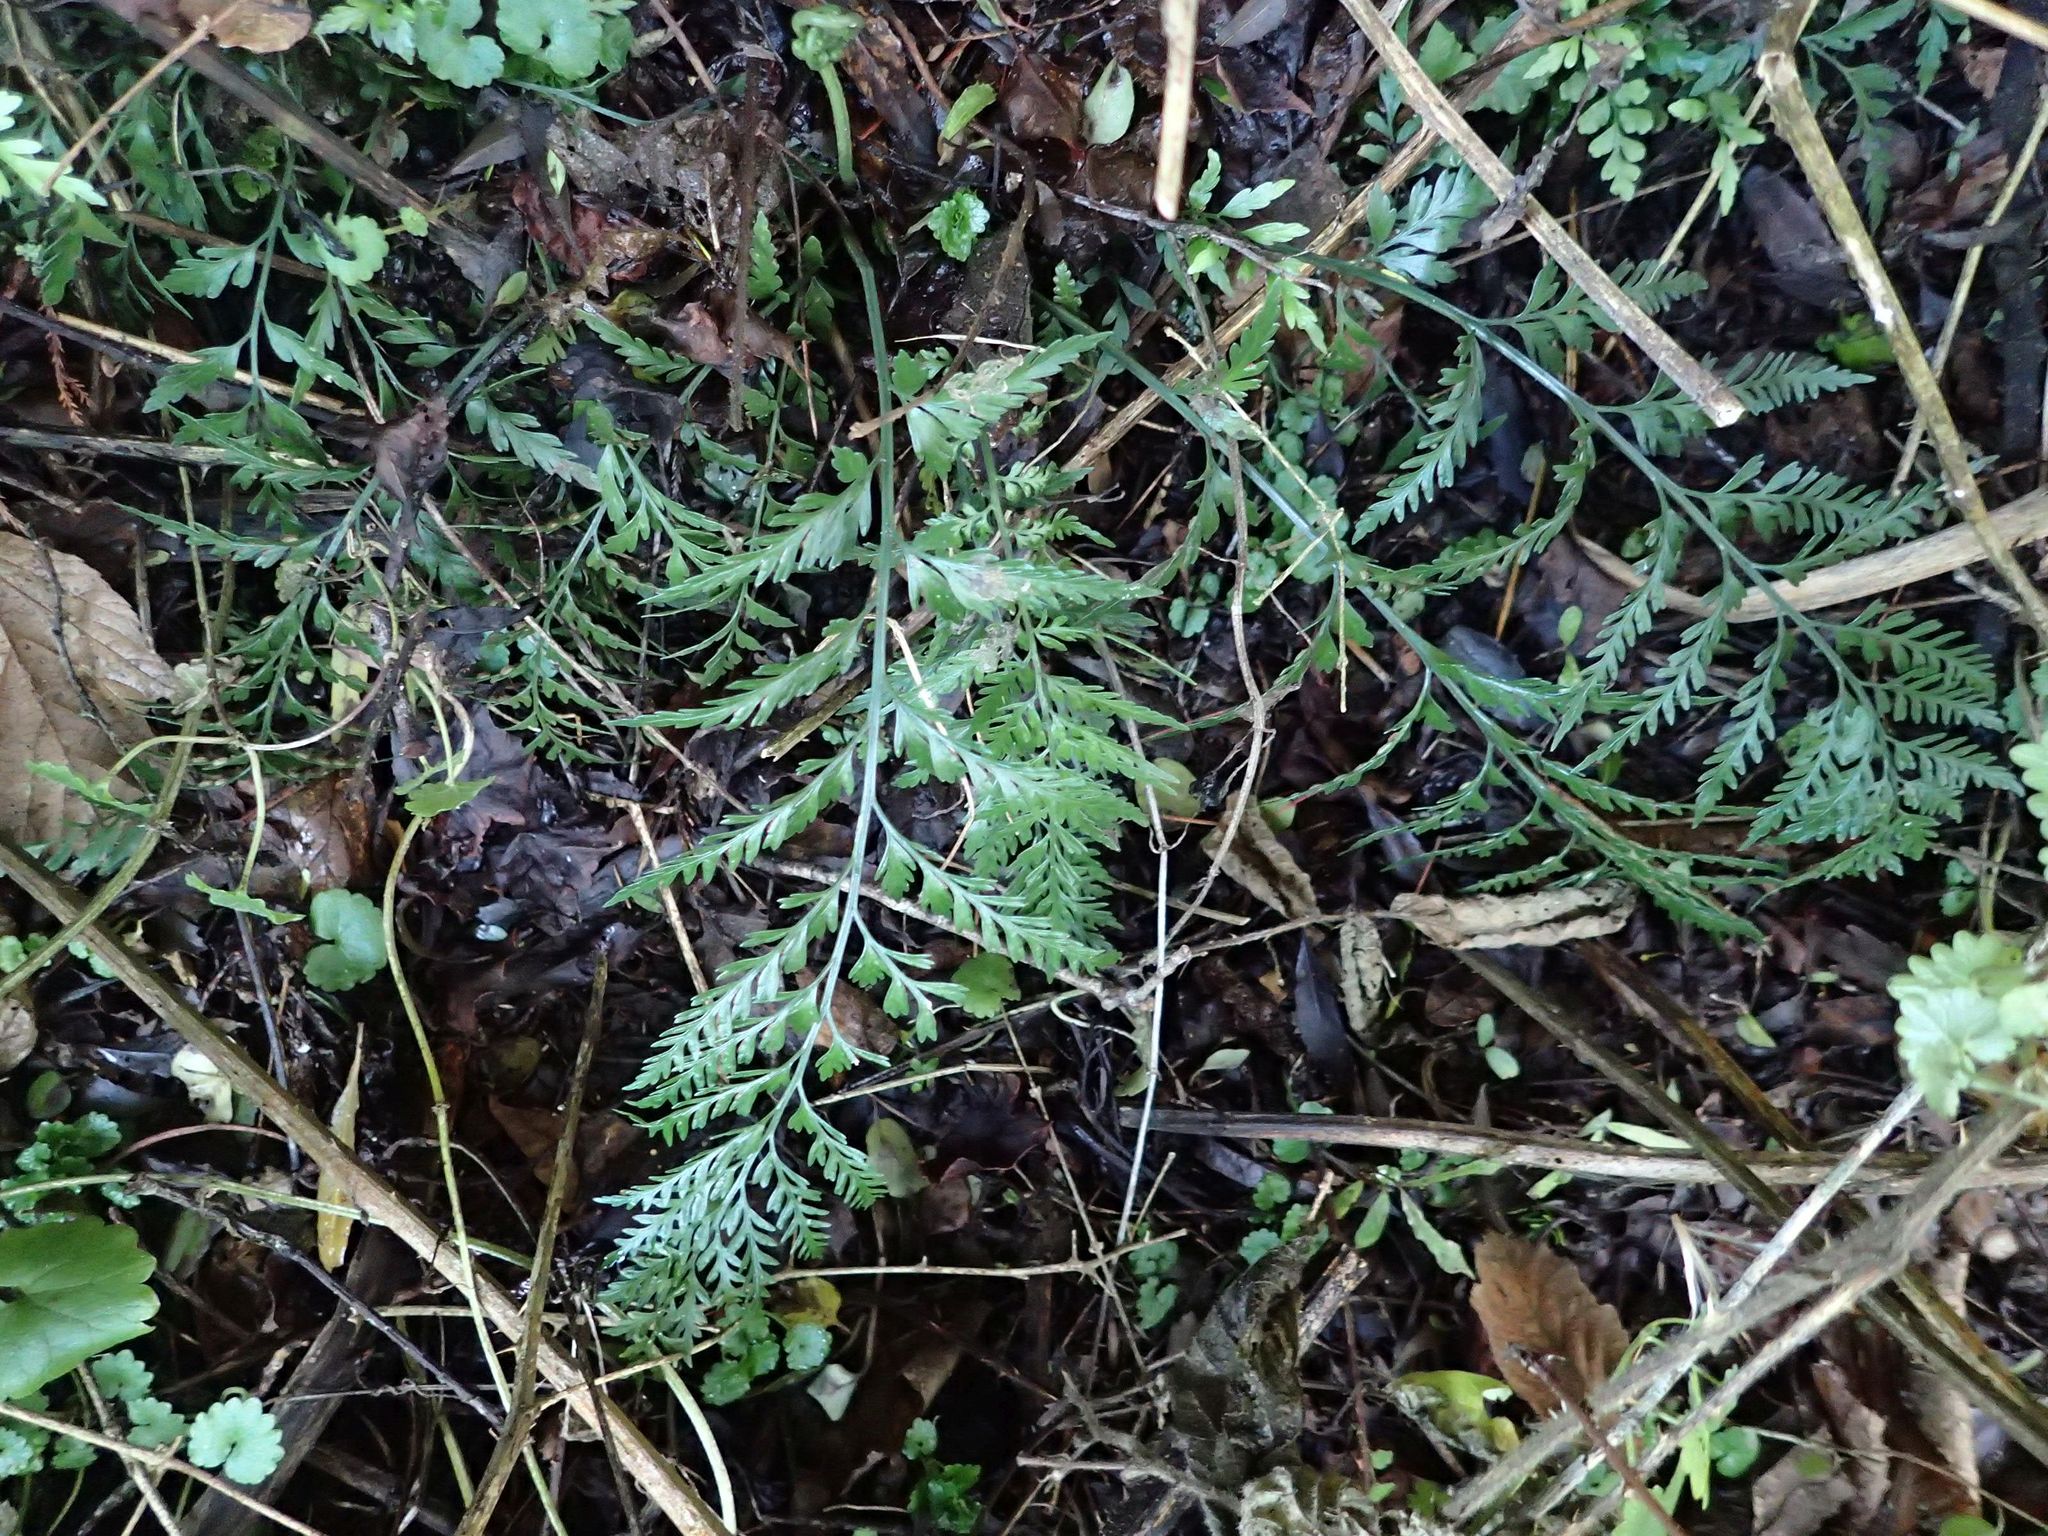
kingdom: Plantae
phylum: Tracheophyta
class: Polypodiopsida
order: Polypodiales
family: Aspleniaceae
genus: Asplenium
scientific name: Asplenium appendiculatum
